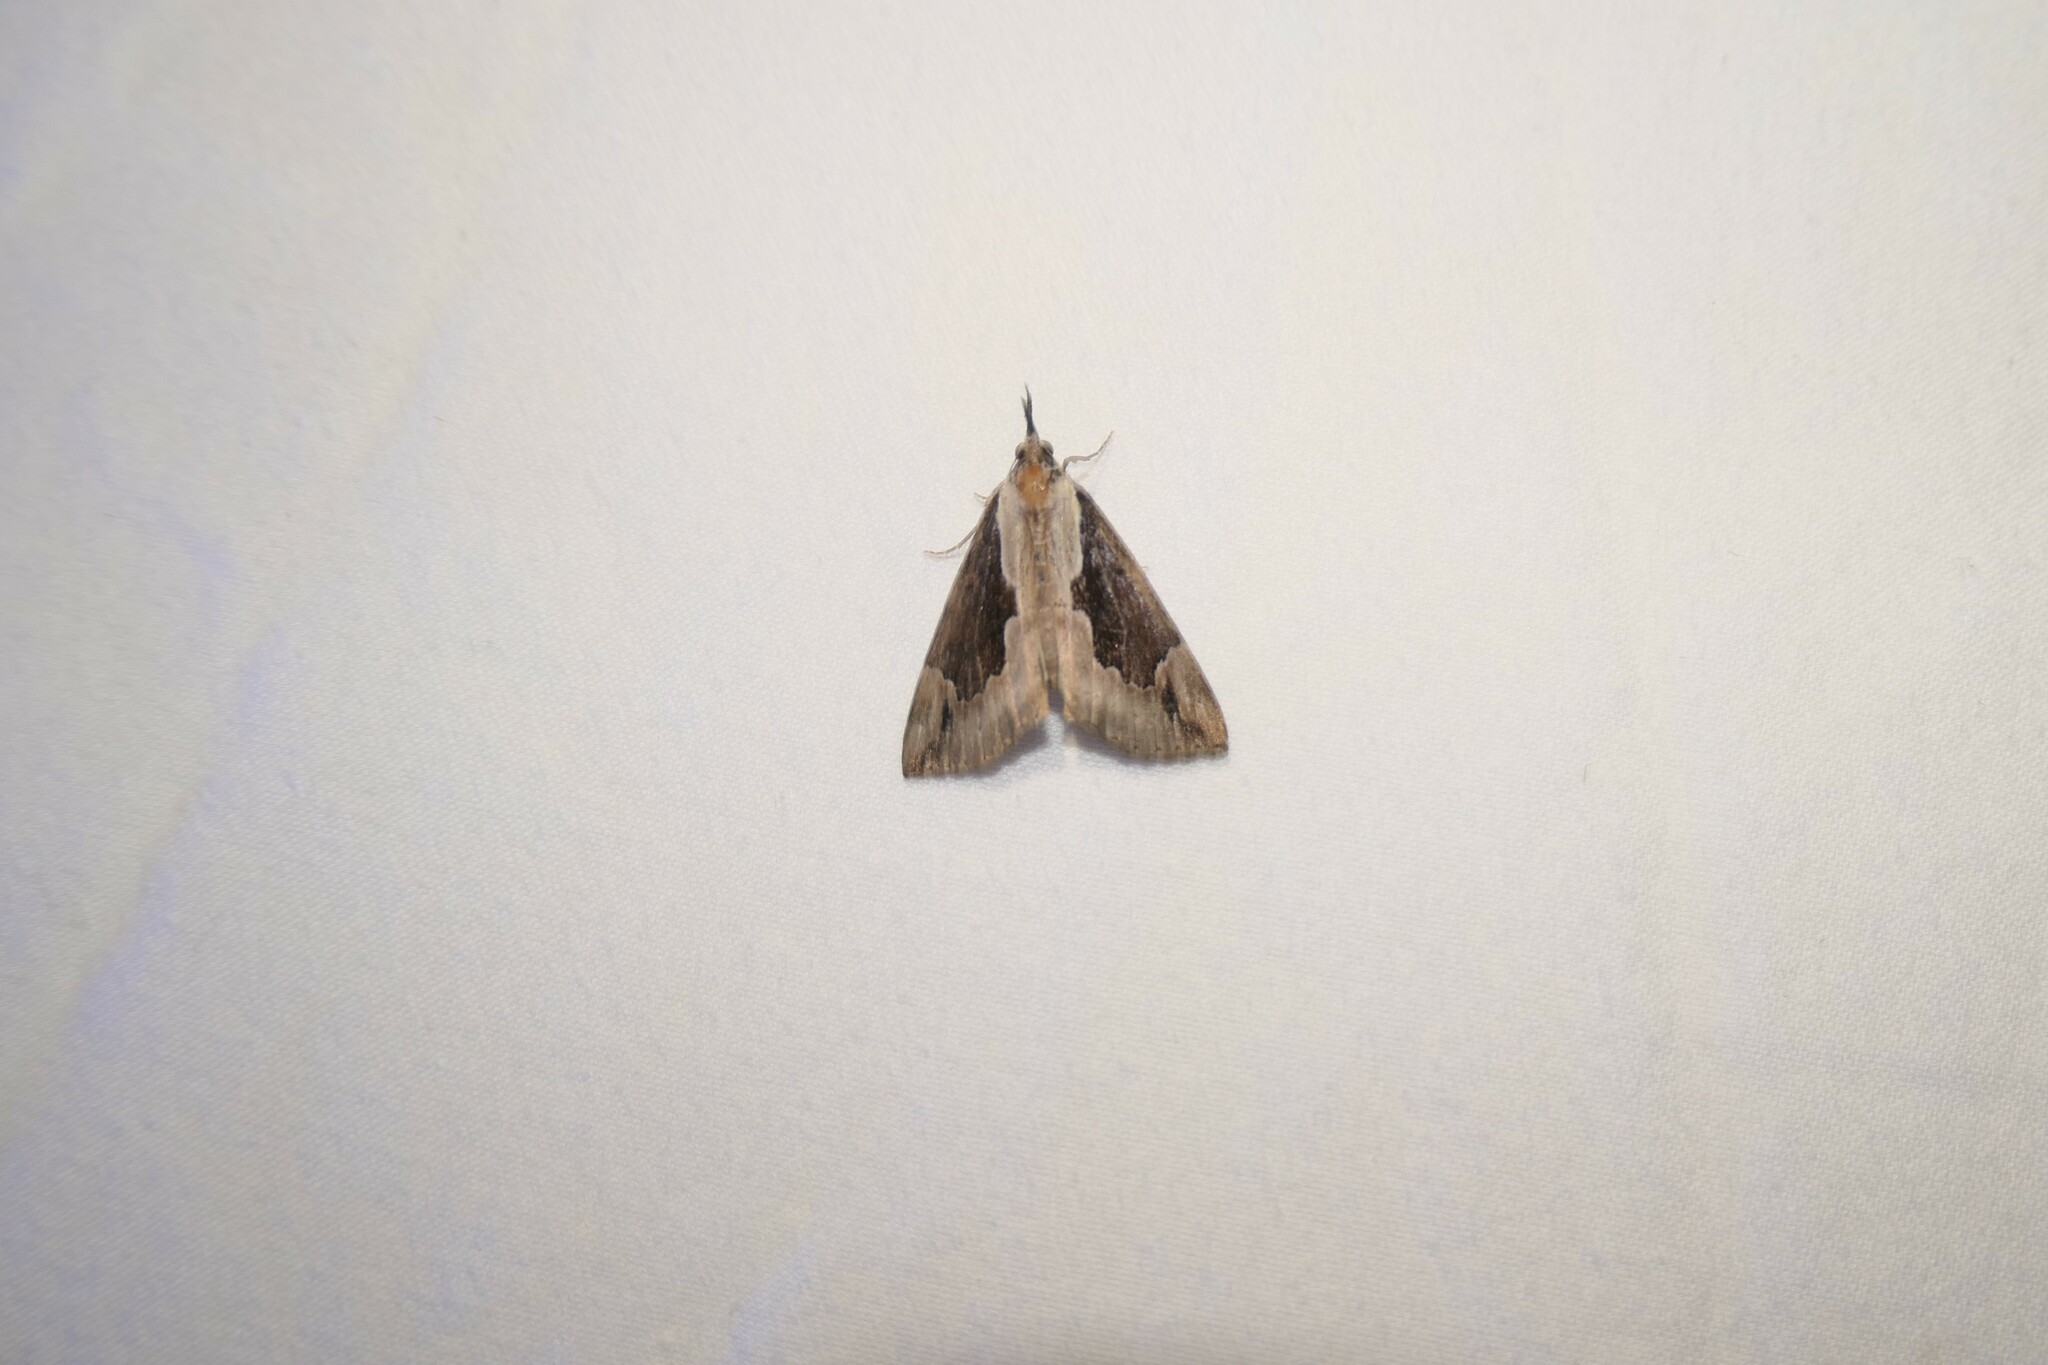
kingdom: Animalia
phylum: Arthropoda
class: Insecta
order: Lepidoptera
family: Erebidae
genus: Hypena
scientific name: Hypena baltimoralis
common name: Baltimore snout
